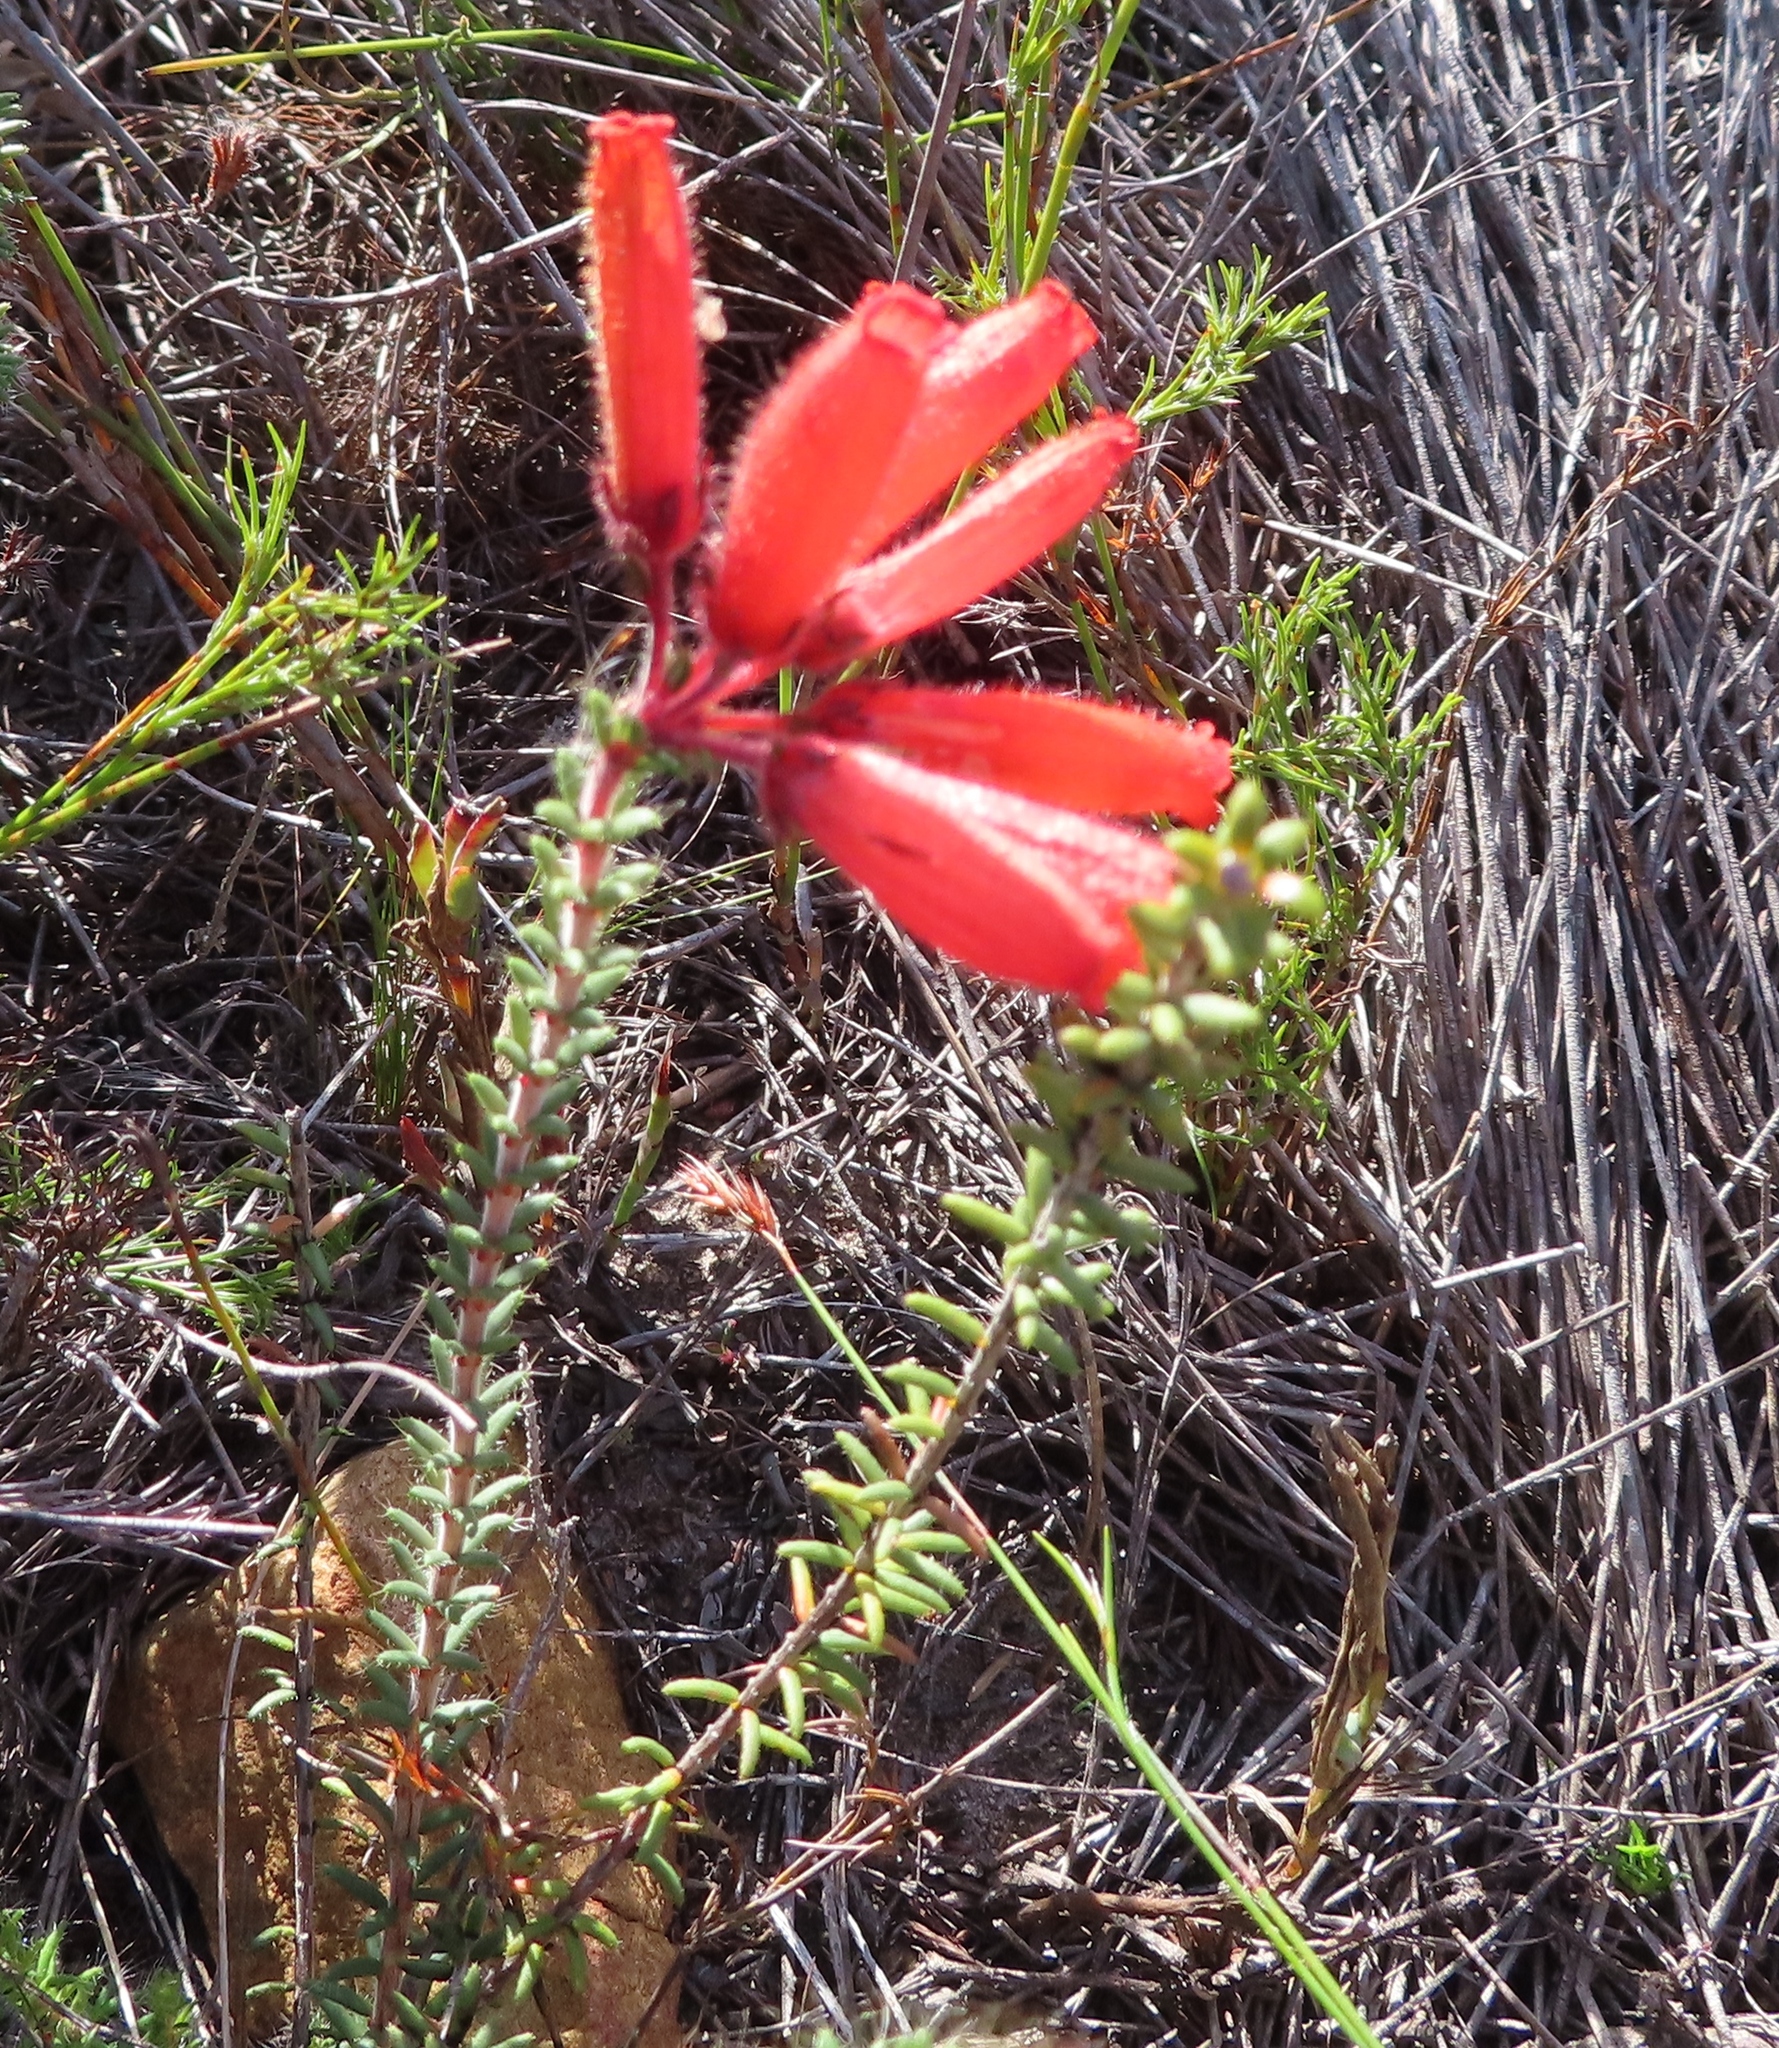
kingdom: Plantae
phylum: Tracheophyta
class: Magnoliopsida
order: Ericales
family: Ericaceae
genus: Erica
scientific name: Erica cerinthoides
